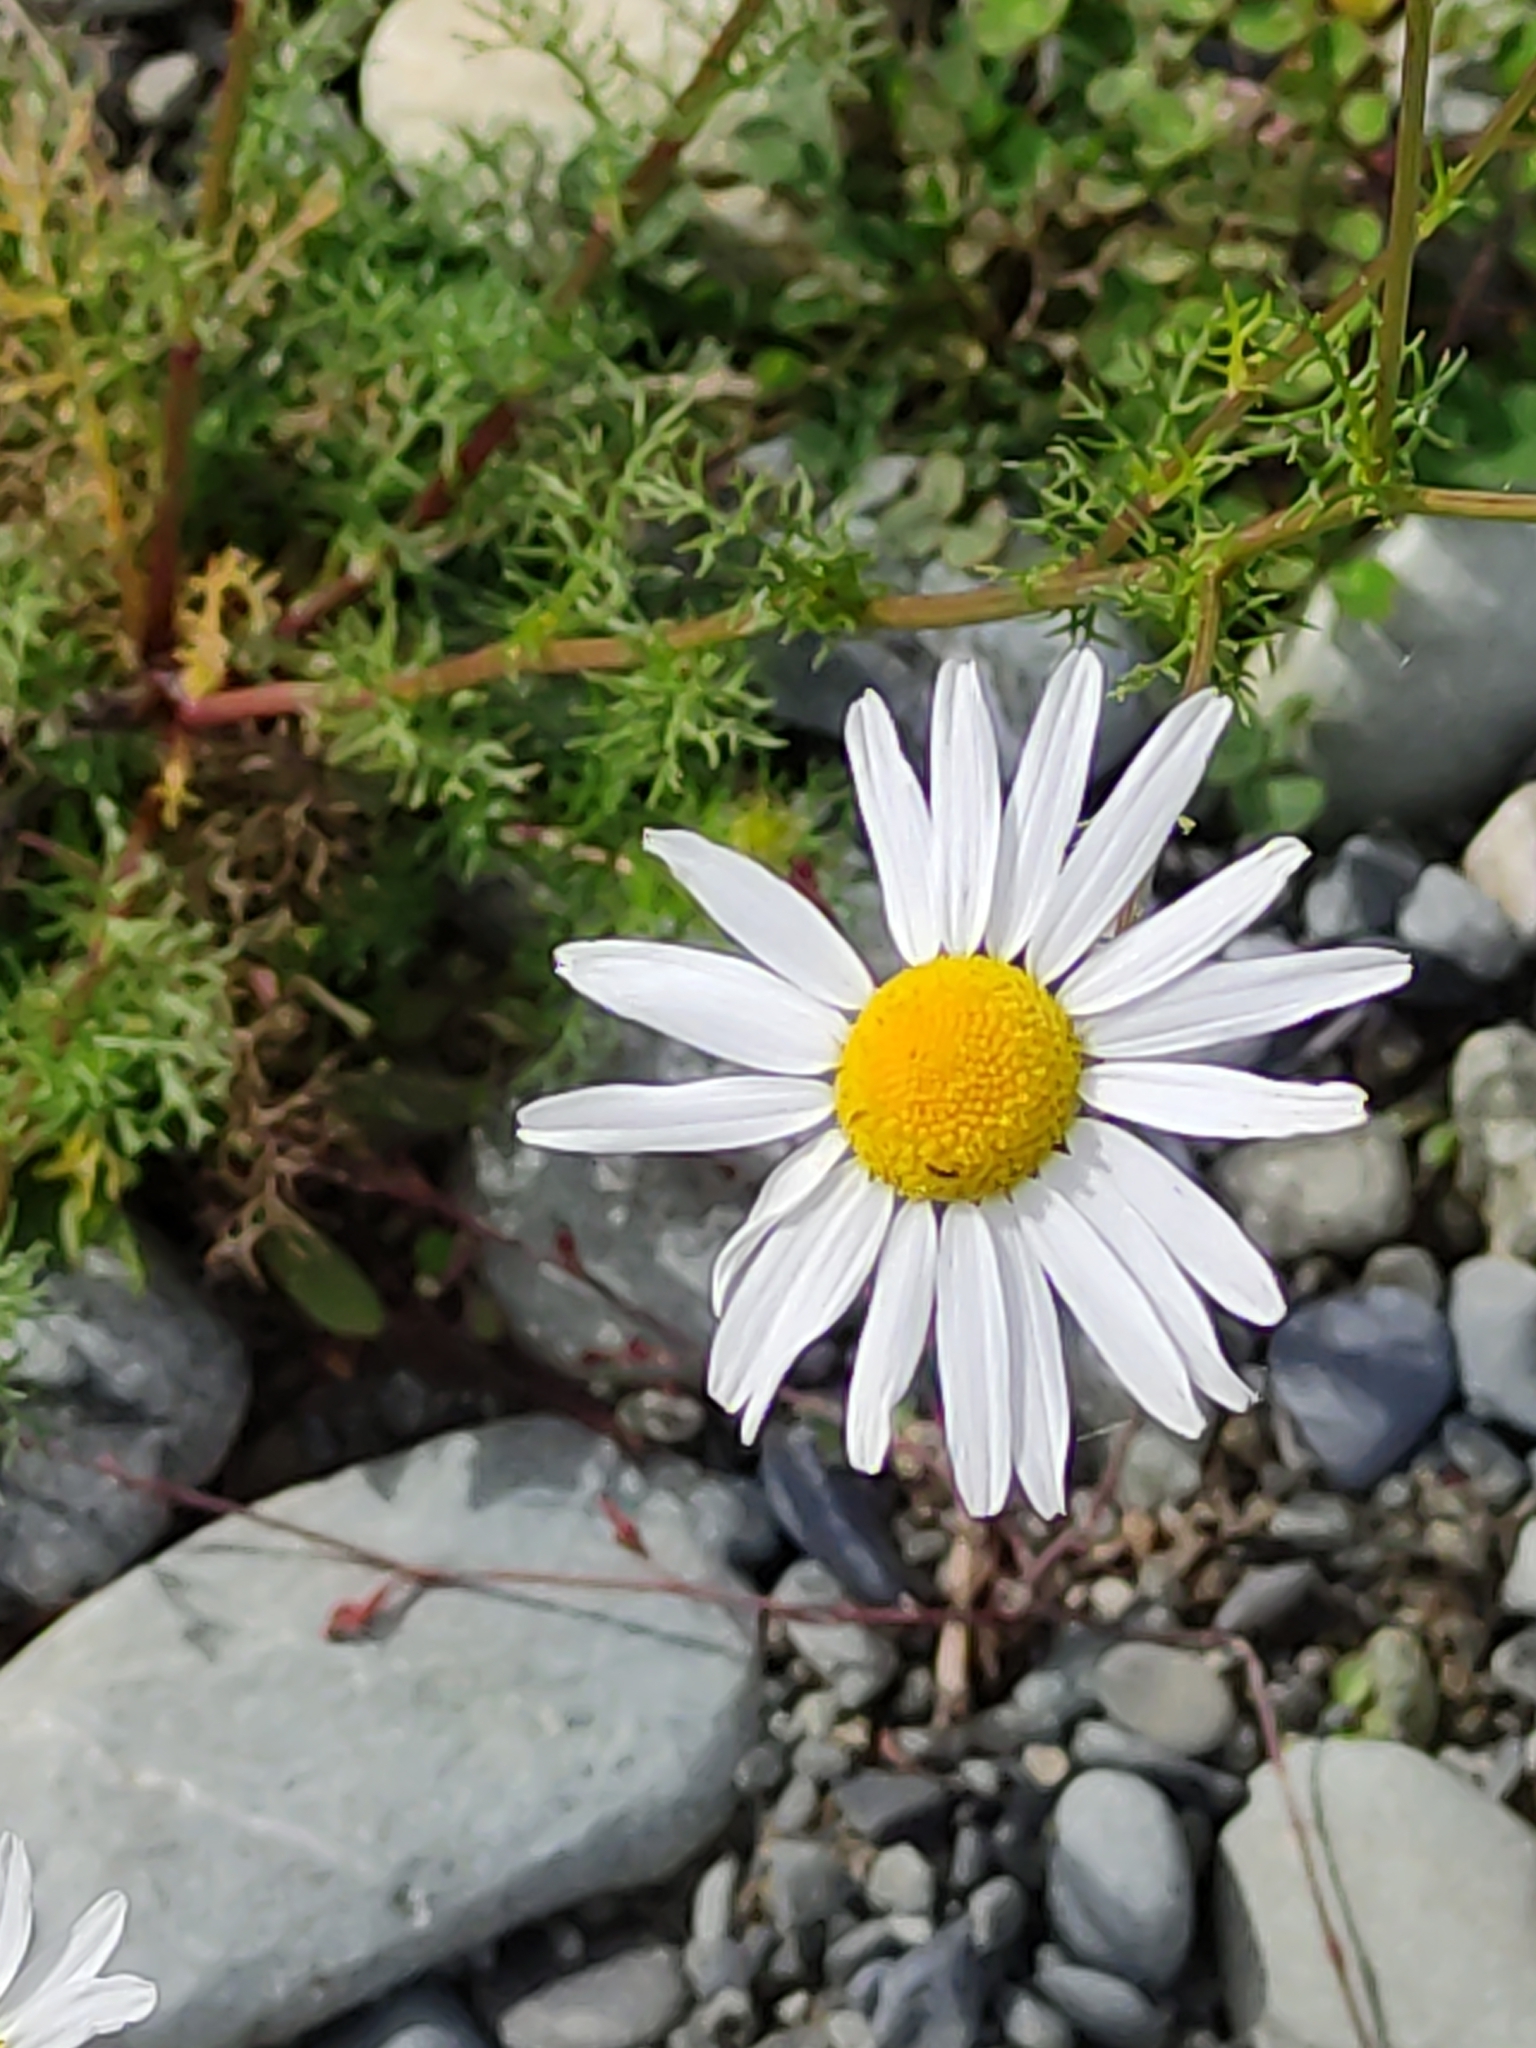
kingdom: Plantae
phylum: Tracheophyta
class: Magnoliopsida
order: Asterales
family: Asteraceae
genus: Tripleurospermum
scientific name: Tripleurospermum inodorum
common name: Scentless mayweed
